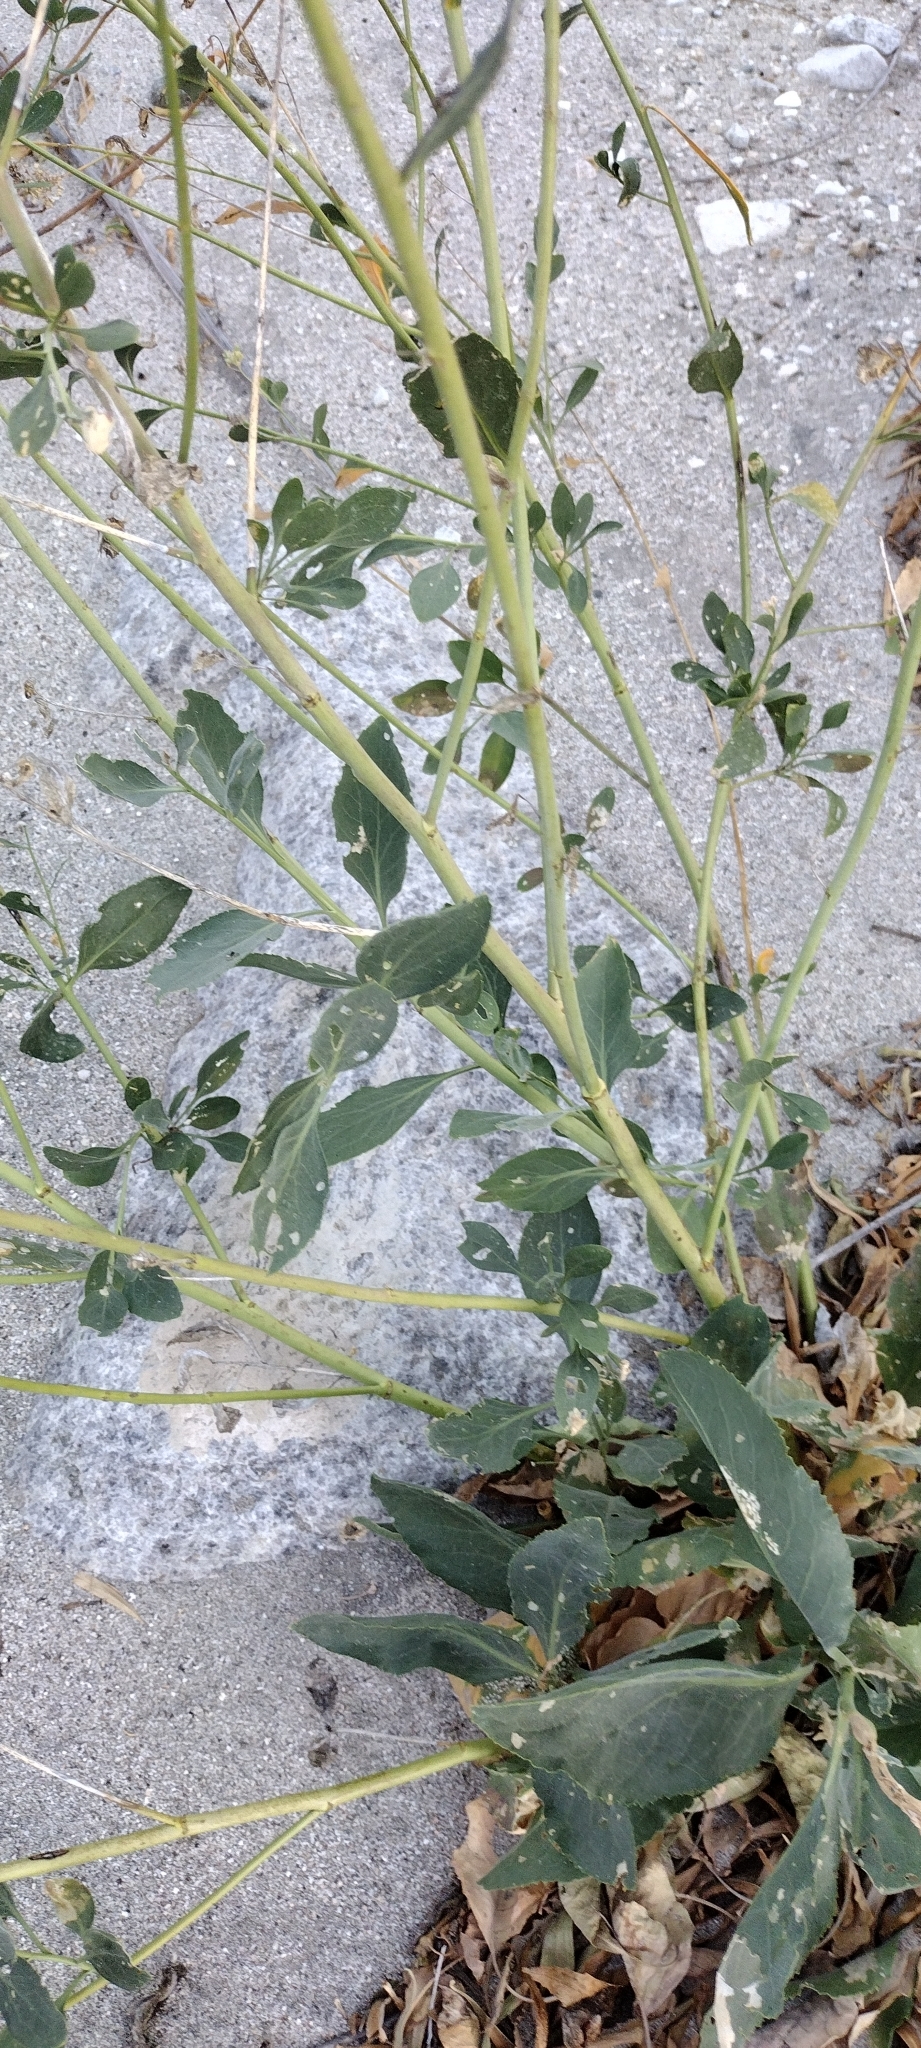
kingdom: Plantae
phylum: Tracheophyta
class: Magnoliopsida
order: Brassicales
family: Brassicaceae
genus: Lepidium
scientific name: Lepidium latifolium
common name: Dittander
